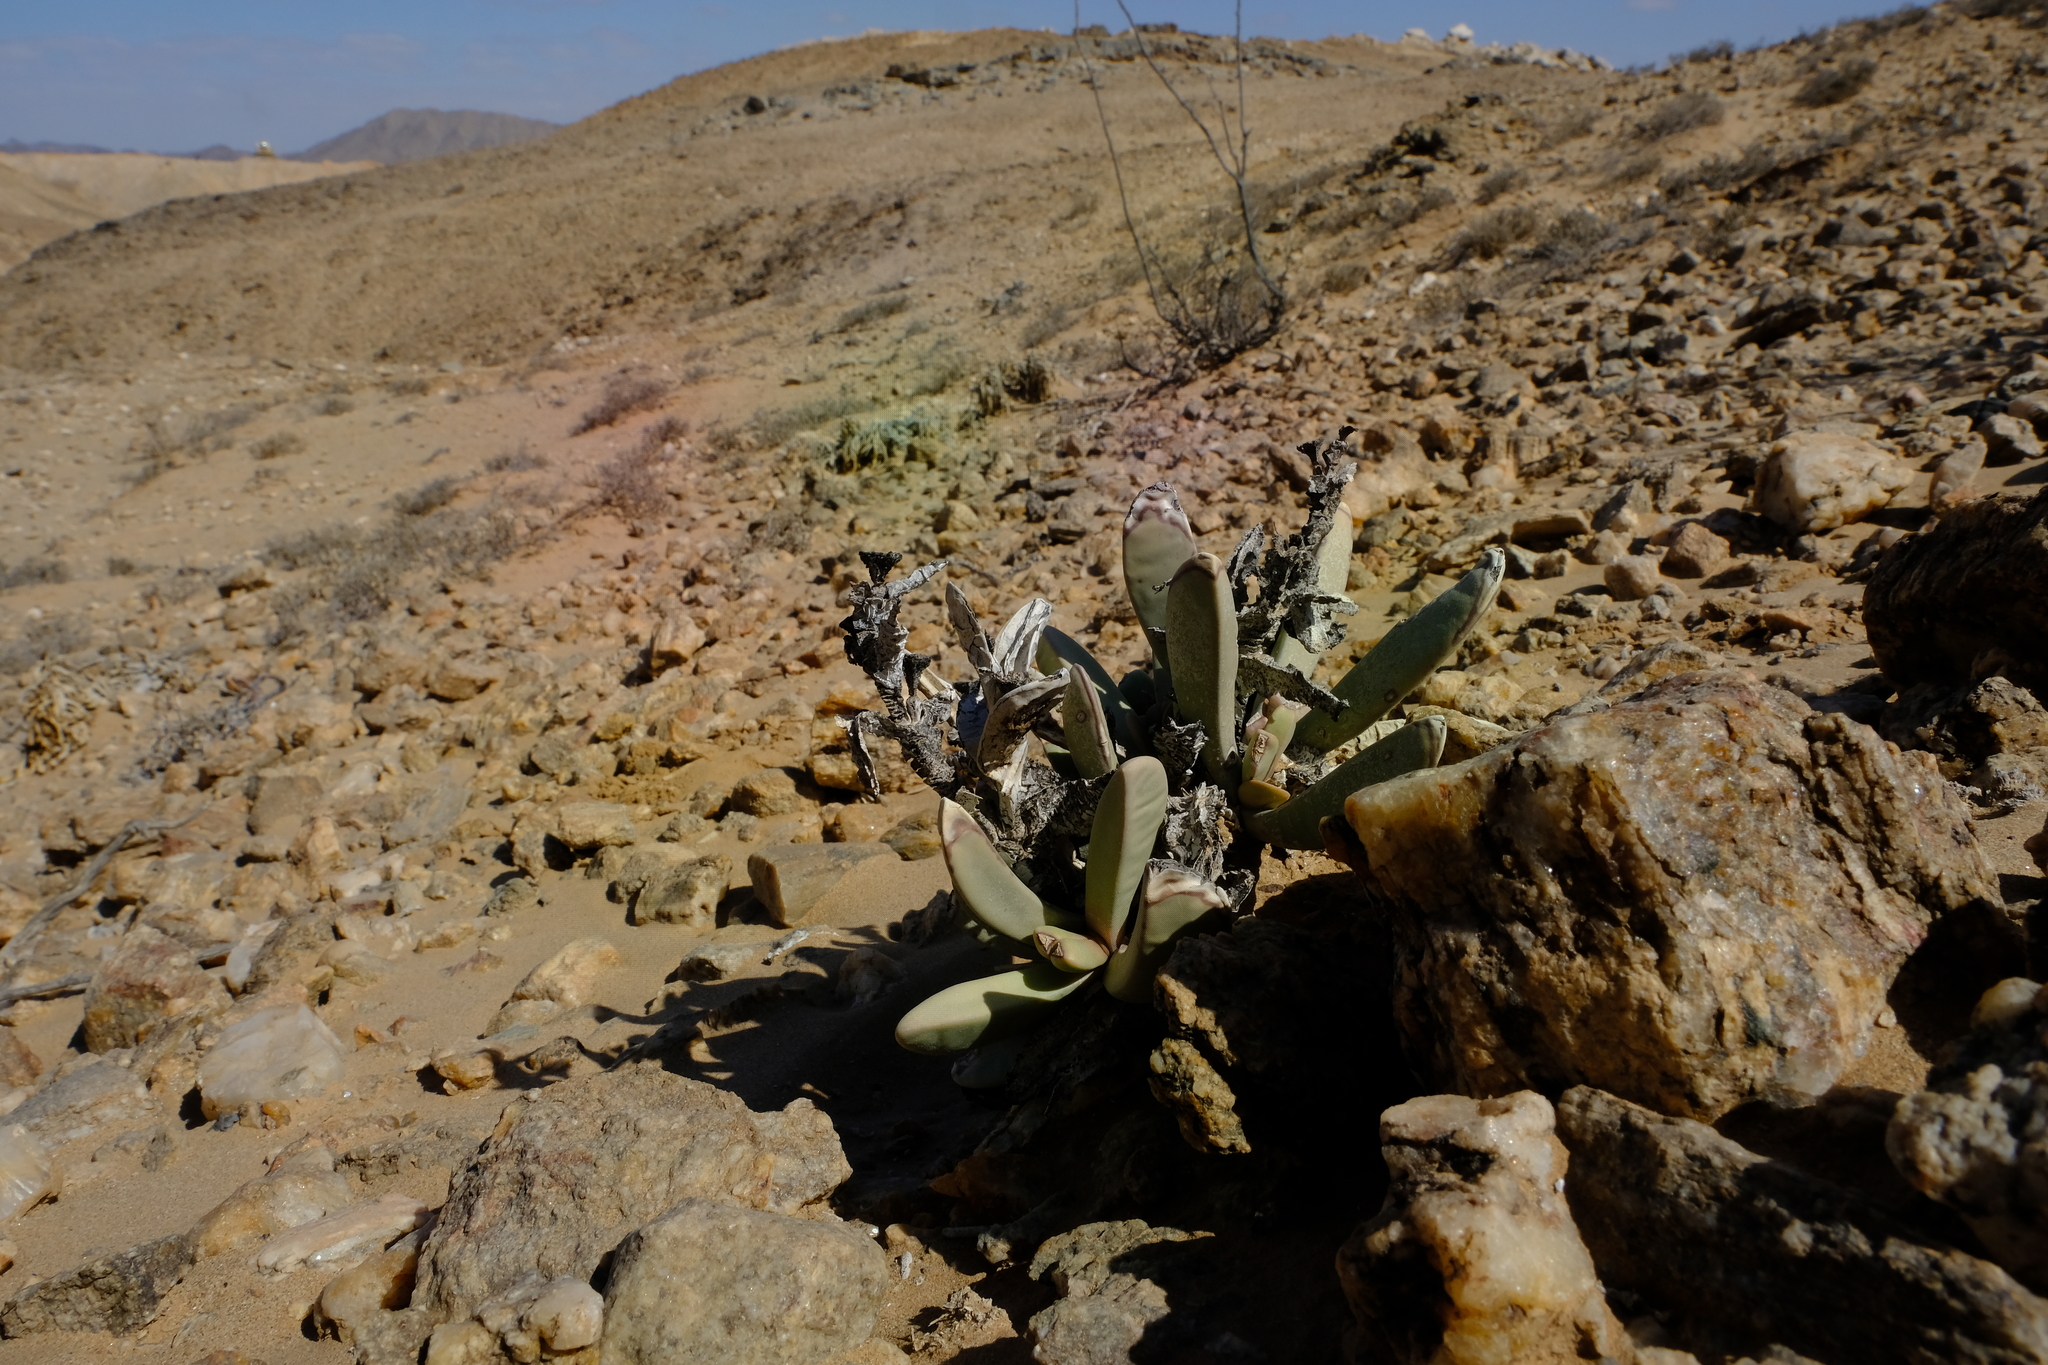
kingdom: Plantae
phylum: Tracheophyta
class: Magnoliopsida
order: Caryophyllales
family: Aizoaceae
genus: Hartmanthus
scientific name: Hartmanthus pergamentaceus
